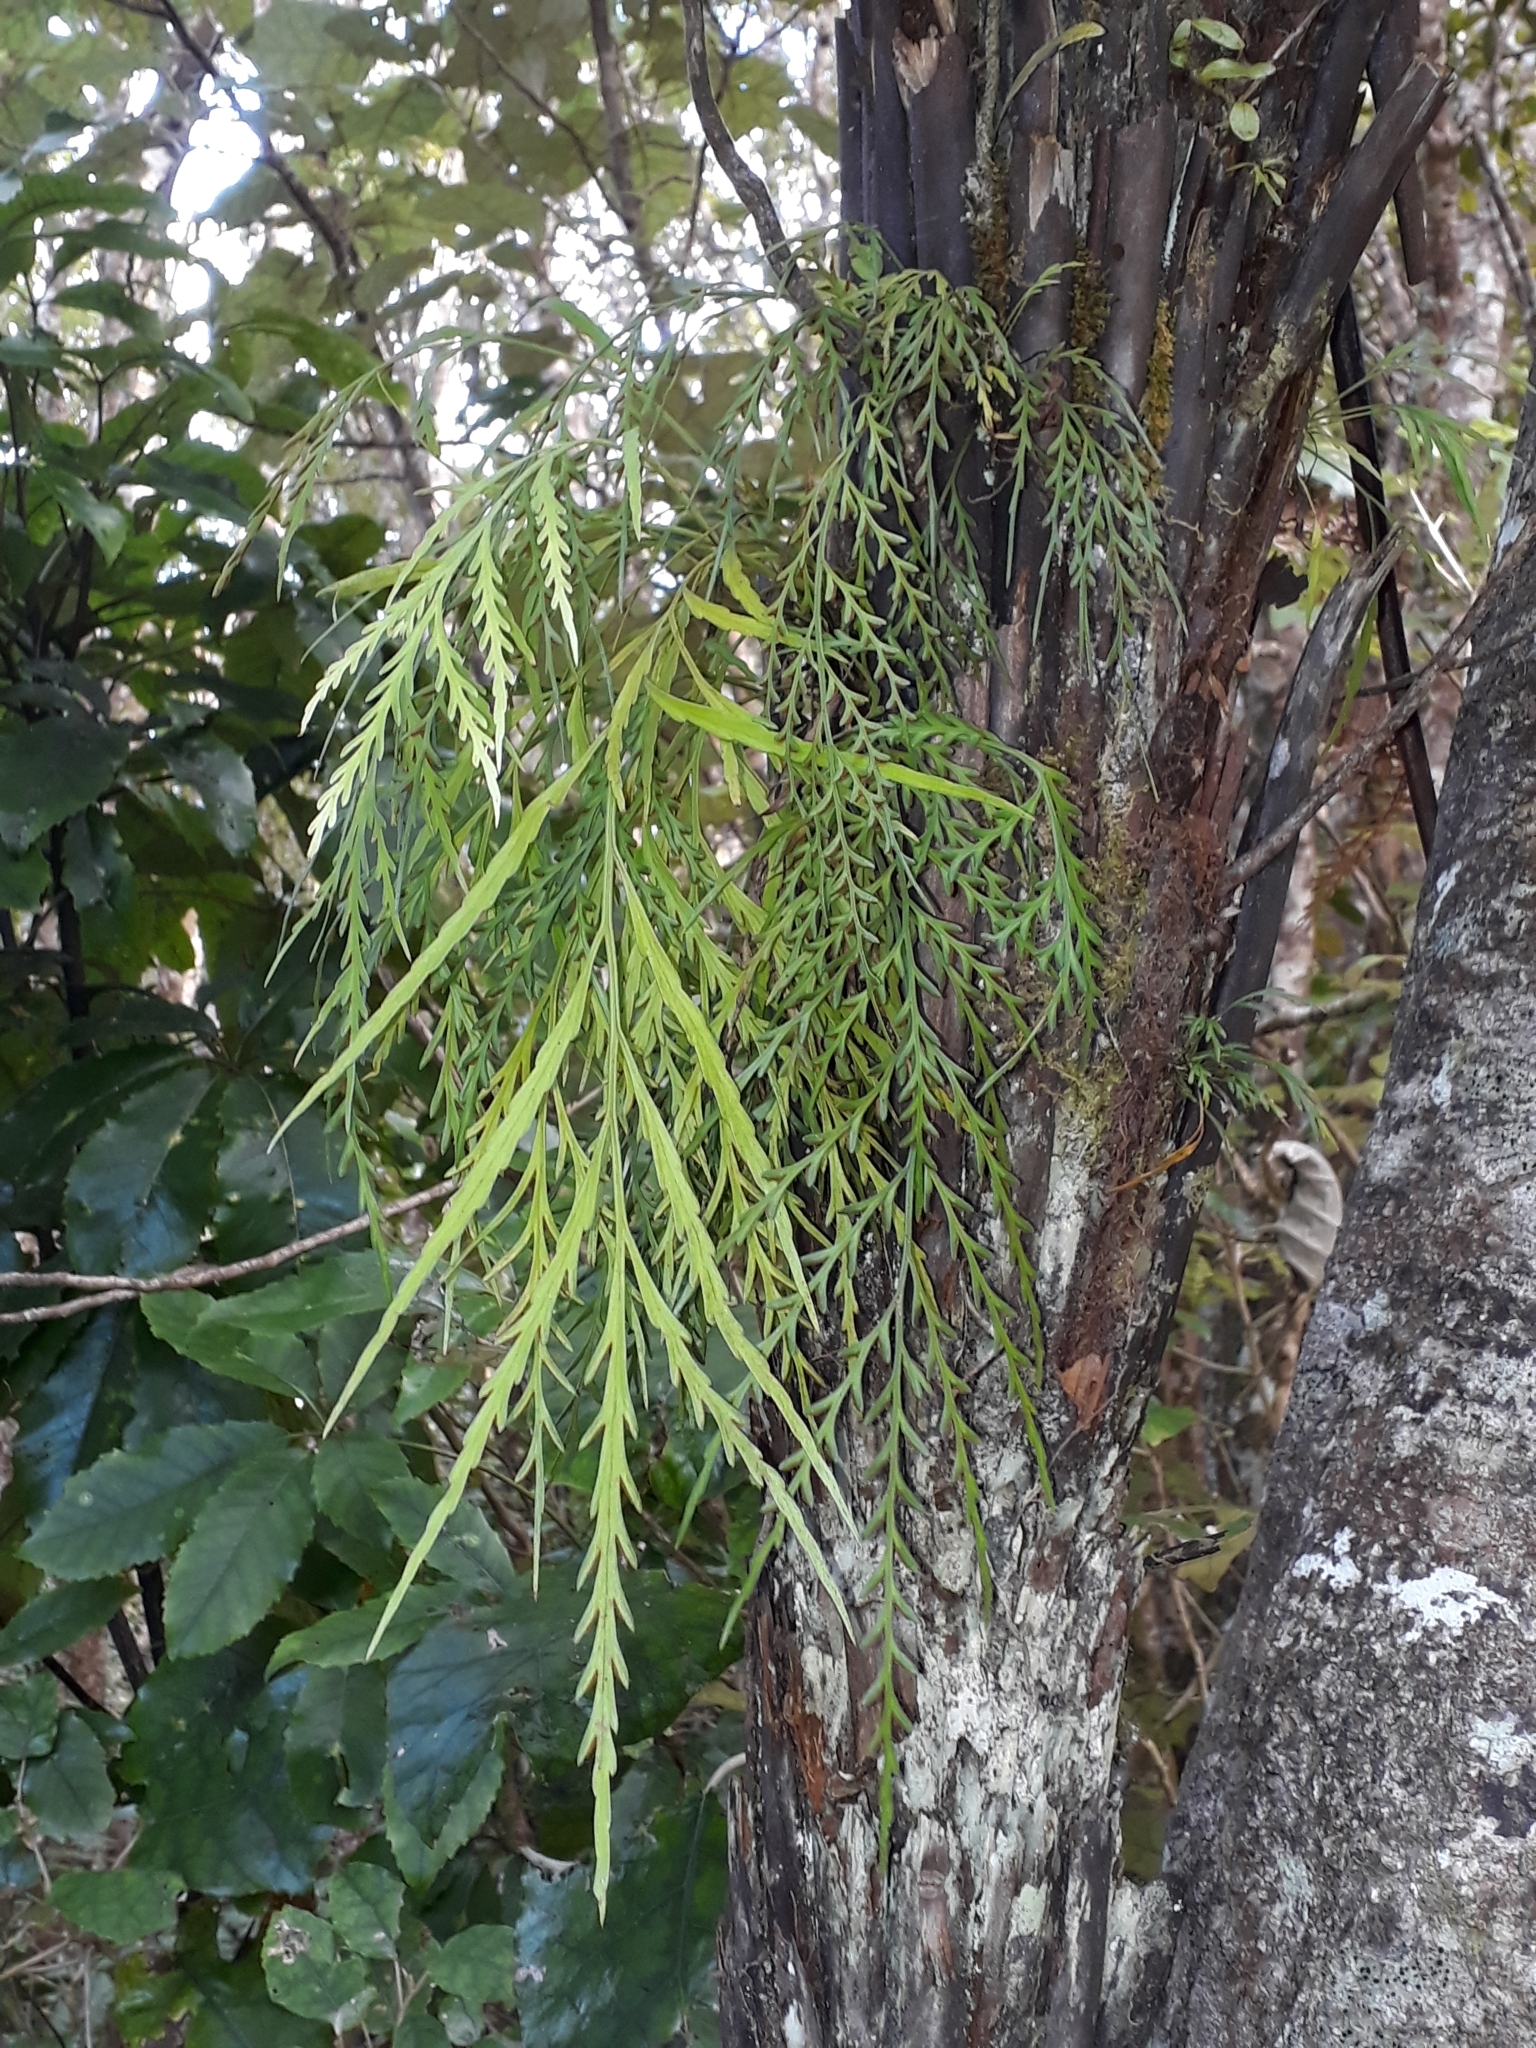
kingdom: Plantae
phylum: Tracheophyta
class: Polypodiopsida
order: Polypodiales
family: Aspleniaceae
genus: Asplenium
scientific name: Asplenium flaccidum
